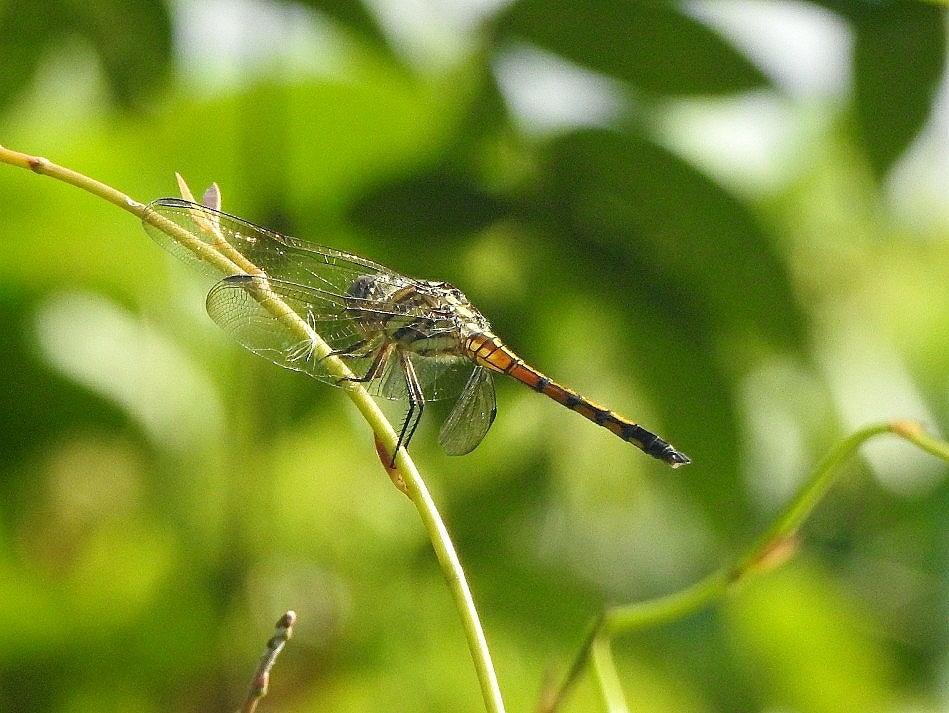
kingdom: Animalia
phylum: Arthropoda
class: Insecta
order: Odonata
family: Libellulidae
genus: Potamarcha
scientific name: Potamarcha congener
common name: Blue chaser
